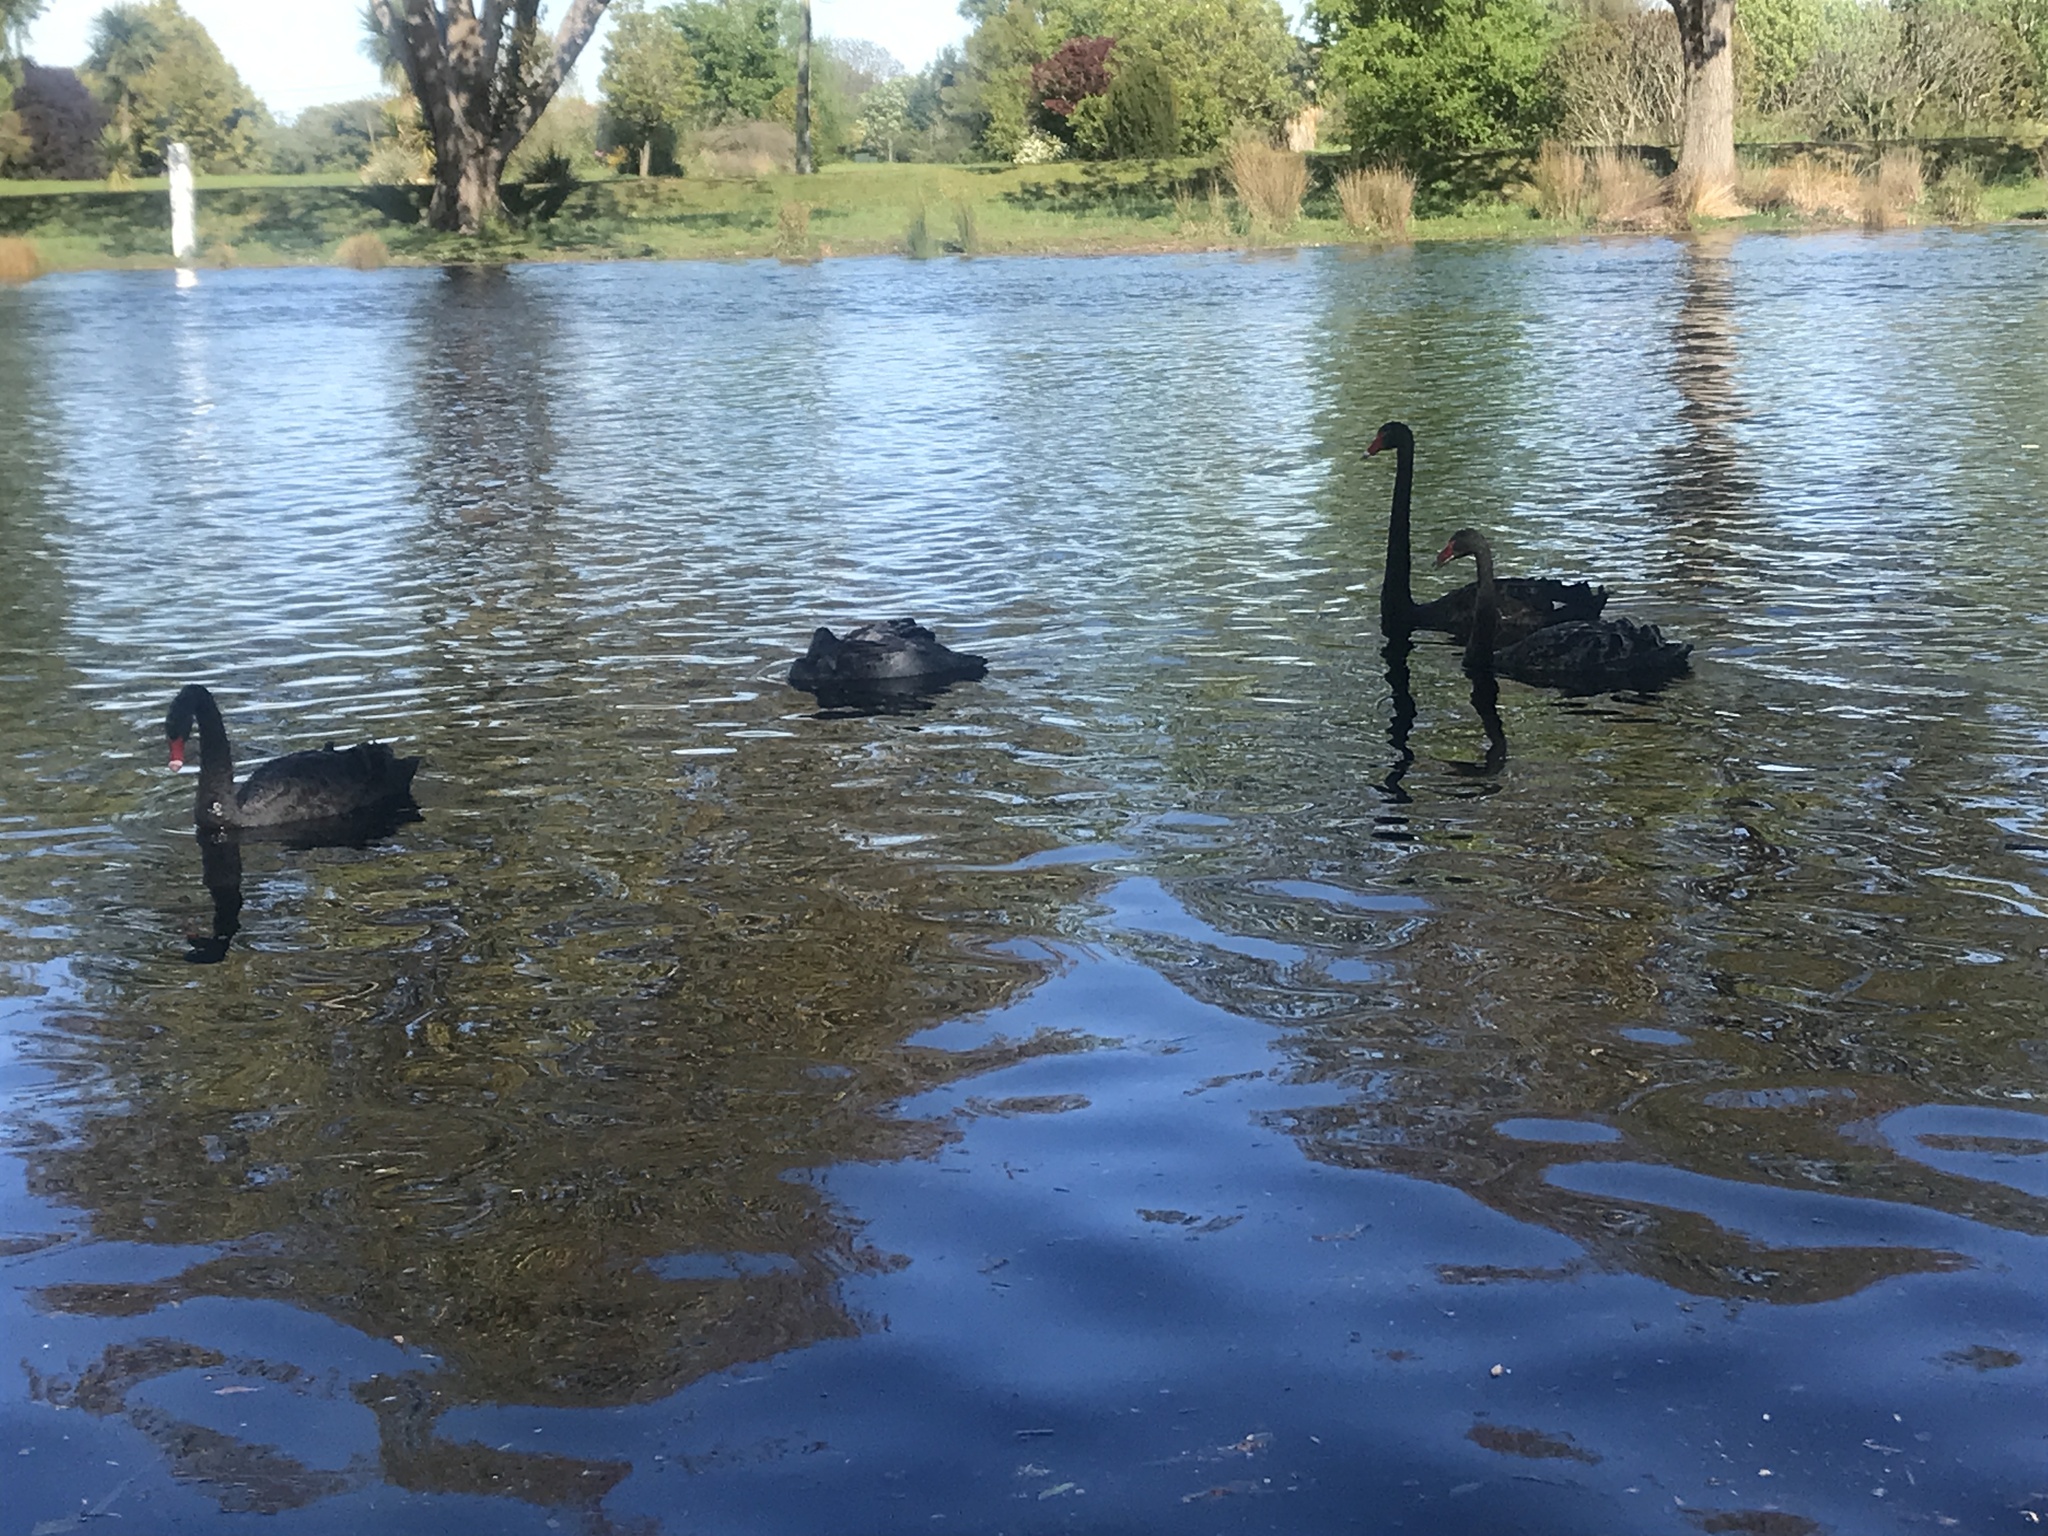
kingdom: Animalia
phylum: Chordata
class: Aves
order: Anseriformes
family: Anatidae
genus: Cygnus
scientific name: Cygnus atratus
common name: Black swan
